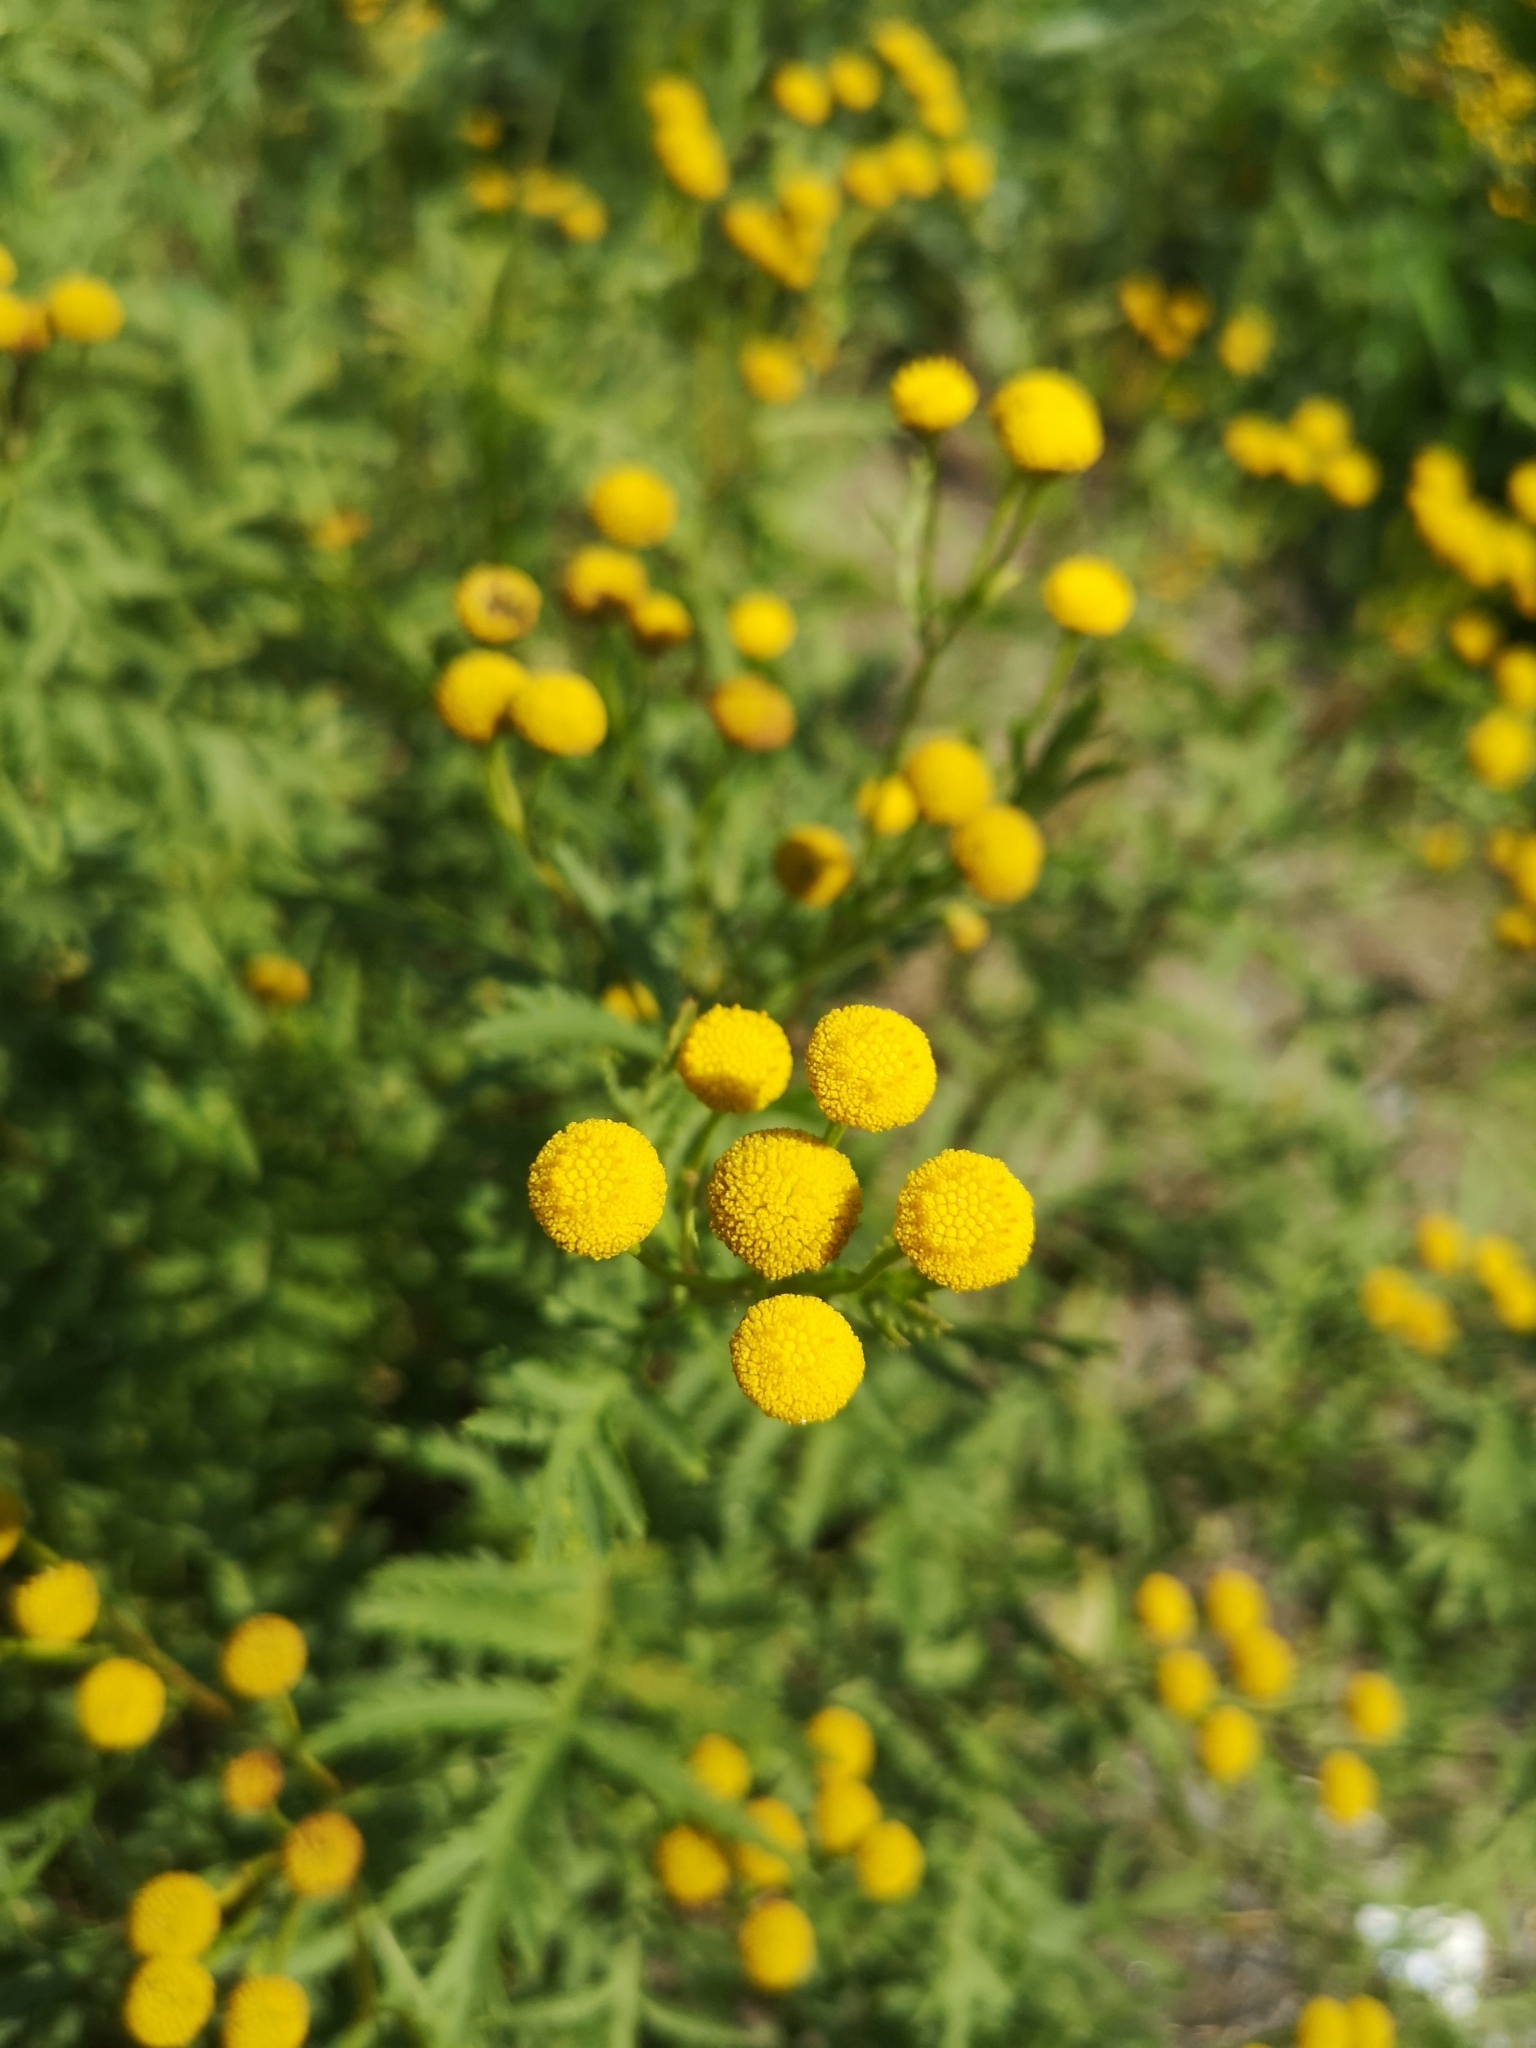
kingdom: Plantae
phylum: Tracheophyta
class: Magnoliopsida
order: Asterales
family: Asteraceae
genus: Tanacetum
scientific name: Tanacetum vulgare
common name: Common tansy
